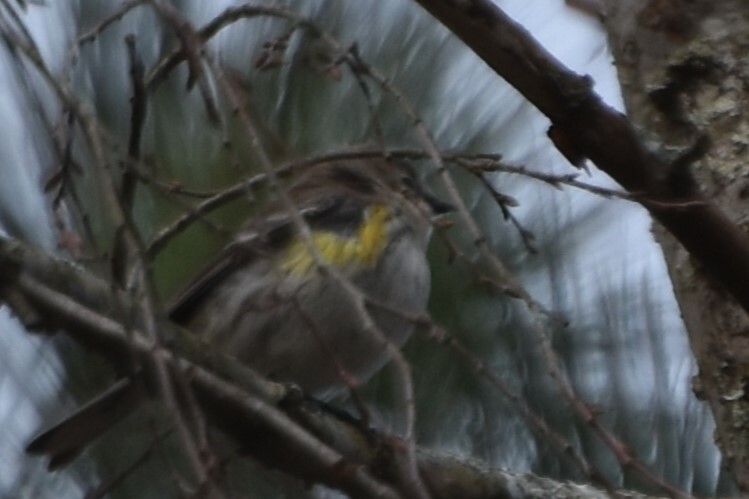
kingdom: Animalia
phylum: Chordata
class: Aves
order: Passeriformes
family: Parulidae
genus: Setophaga
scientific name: Setophaga coronata
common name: Myrtle warbler
